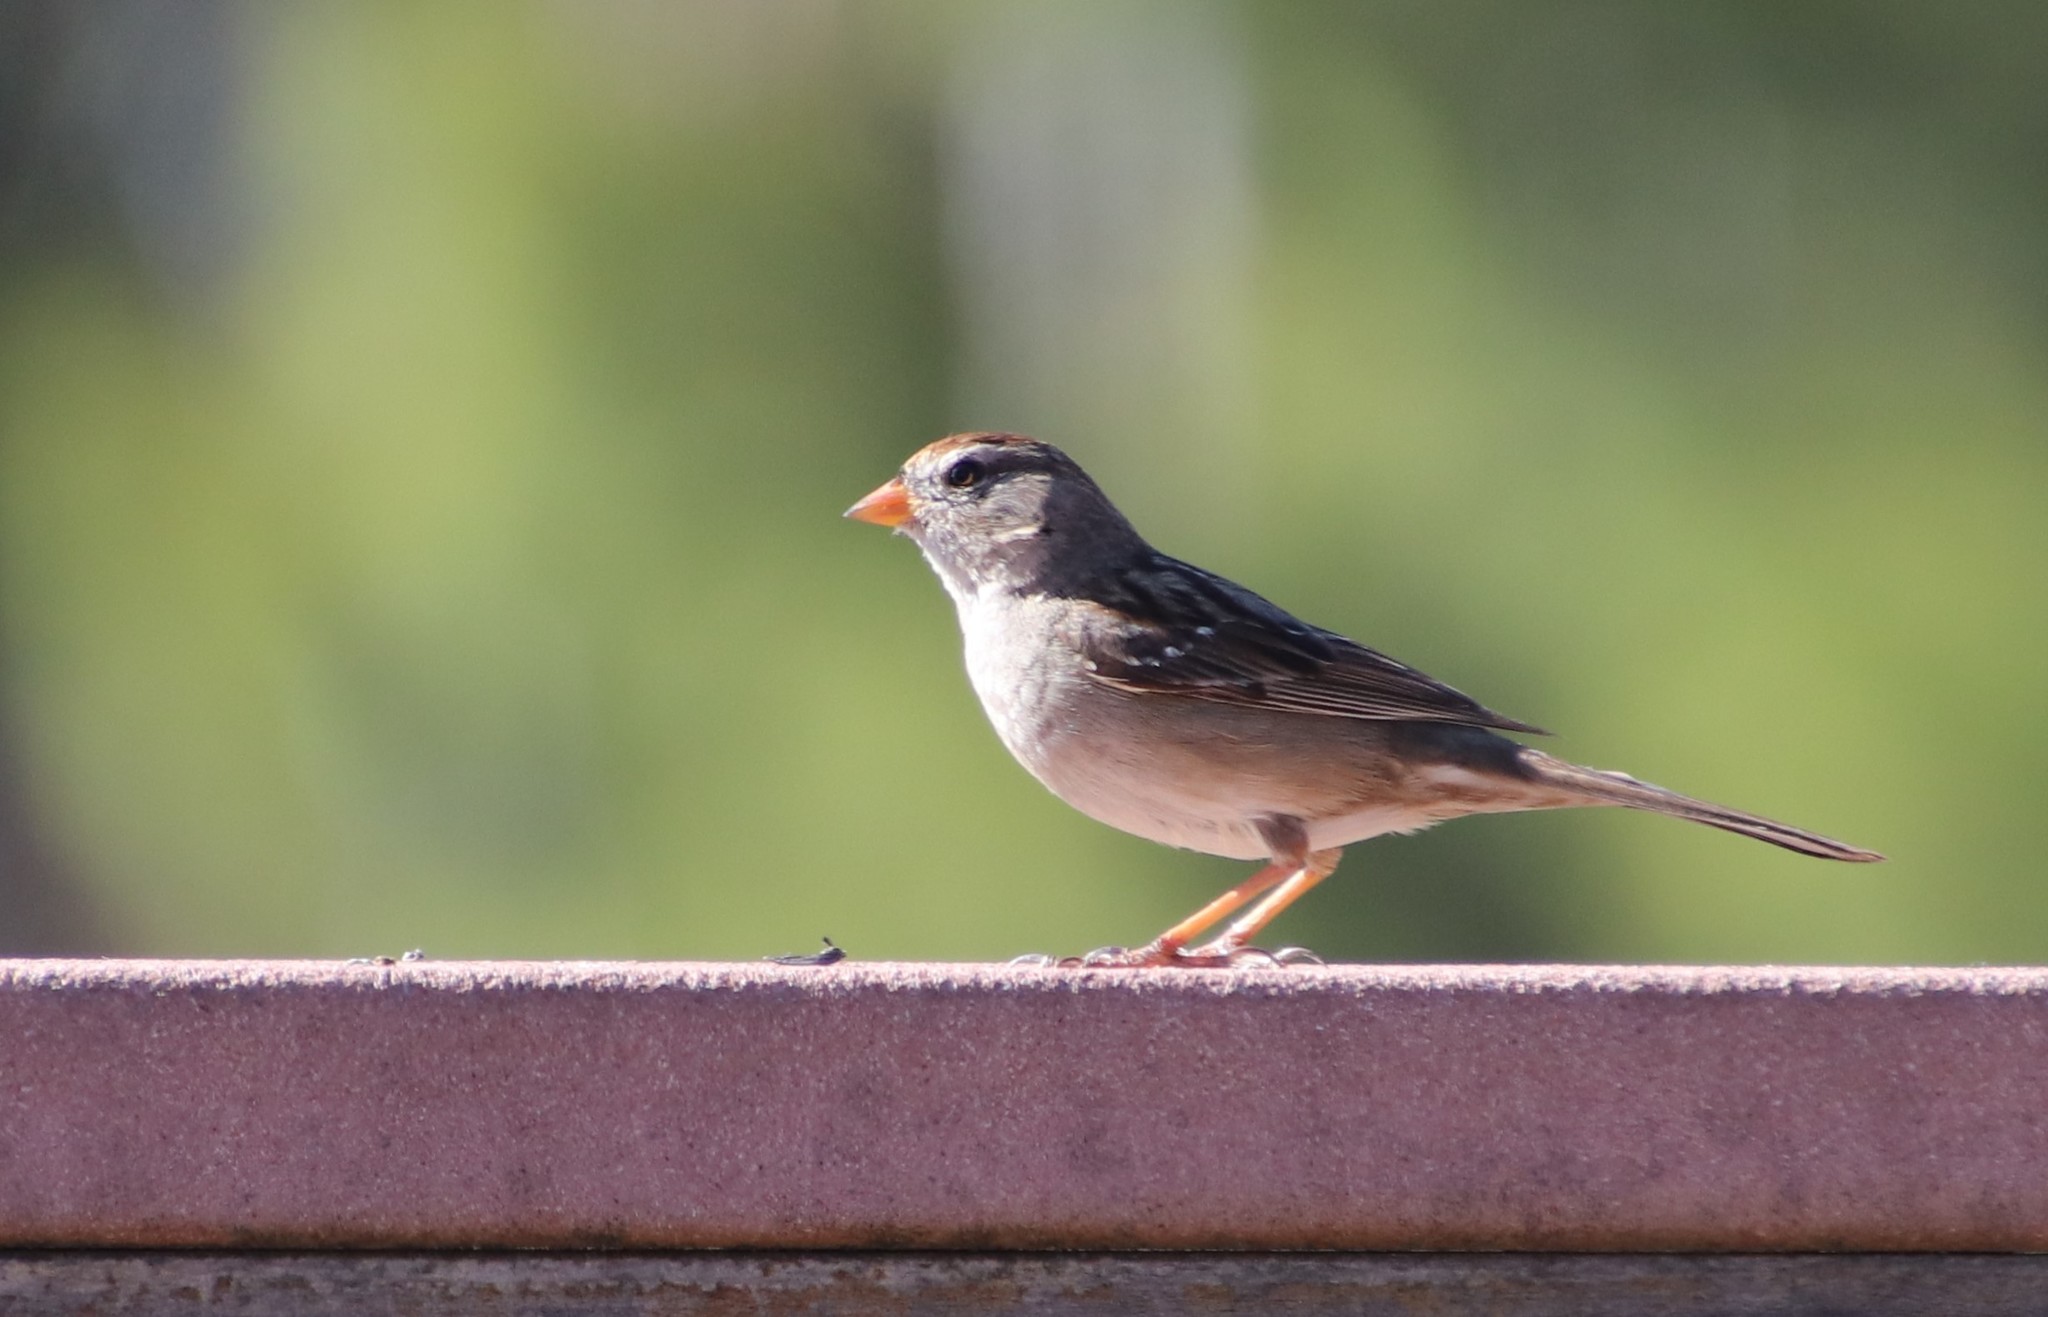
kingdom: Animalia
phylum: Chordata
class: Aves
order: Passeriformes
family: Passerellidae
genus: Zonotrichia
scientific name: Zonotrichia leucophrys
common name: White-crowned sparrow
